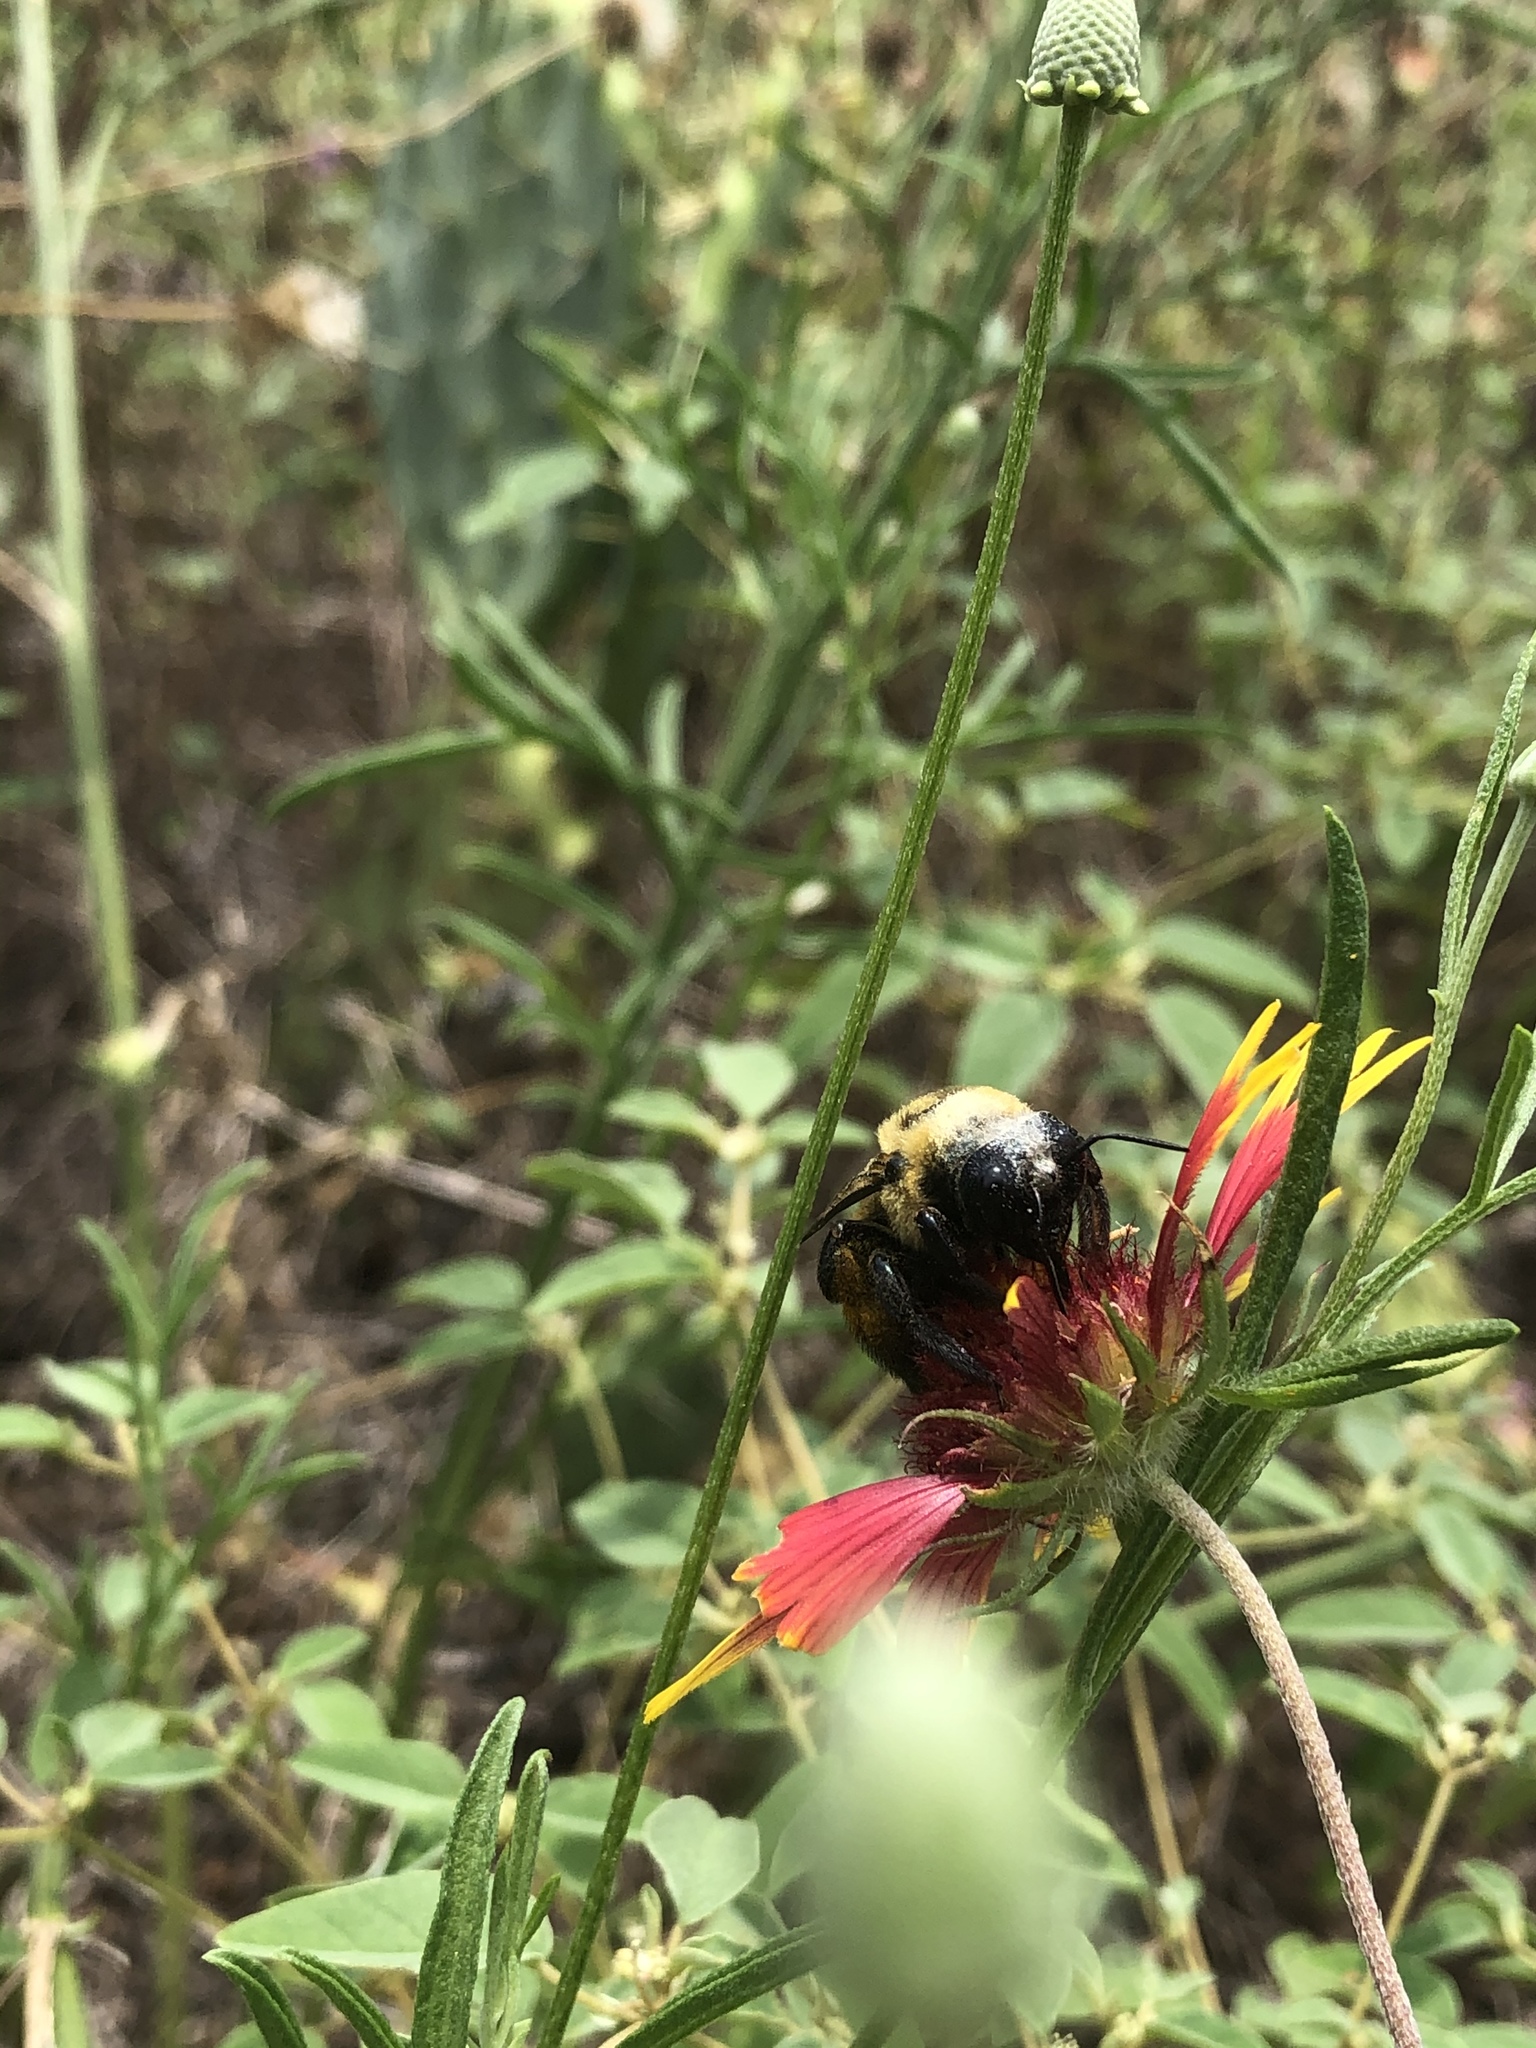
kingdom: Animalia
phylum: Arthropoda
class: Insecta
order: Hymenoptera
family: Apidae
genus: Xylocopa
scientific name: Xylocopa virginica
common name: Carpenter bee
